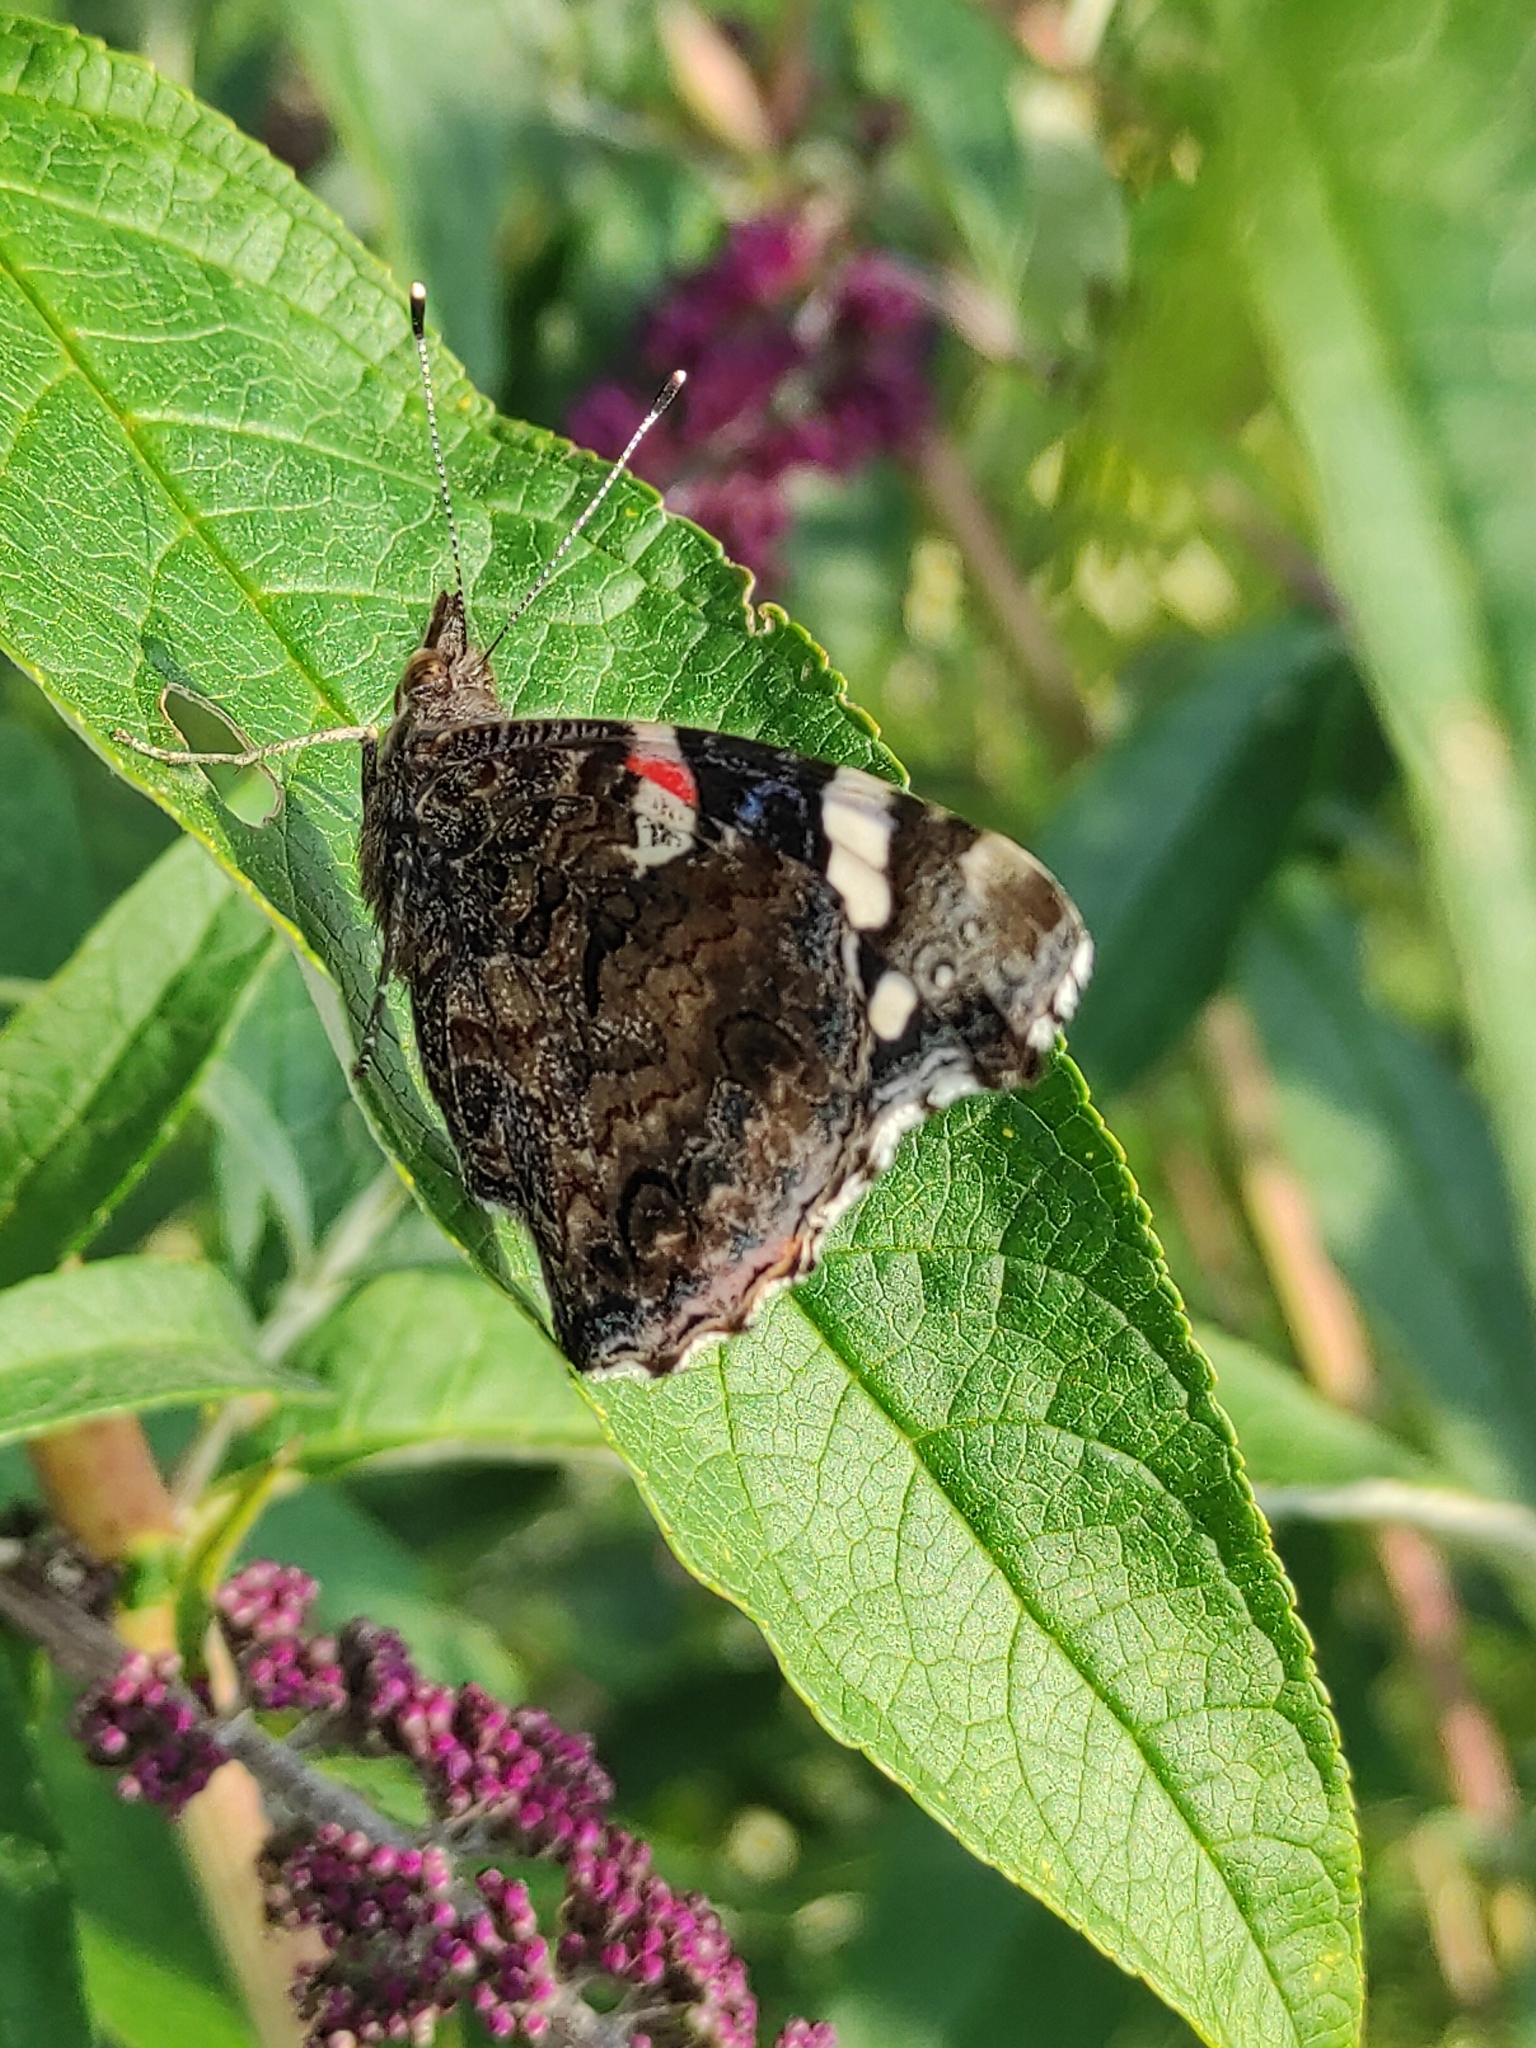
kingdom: Animalia
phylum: Arthropoda
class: Insecta
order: Lepidoptera
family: Nymphalidae
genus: Vanessa
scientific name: Vanessa atalanta
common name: Red admiral
